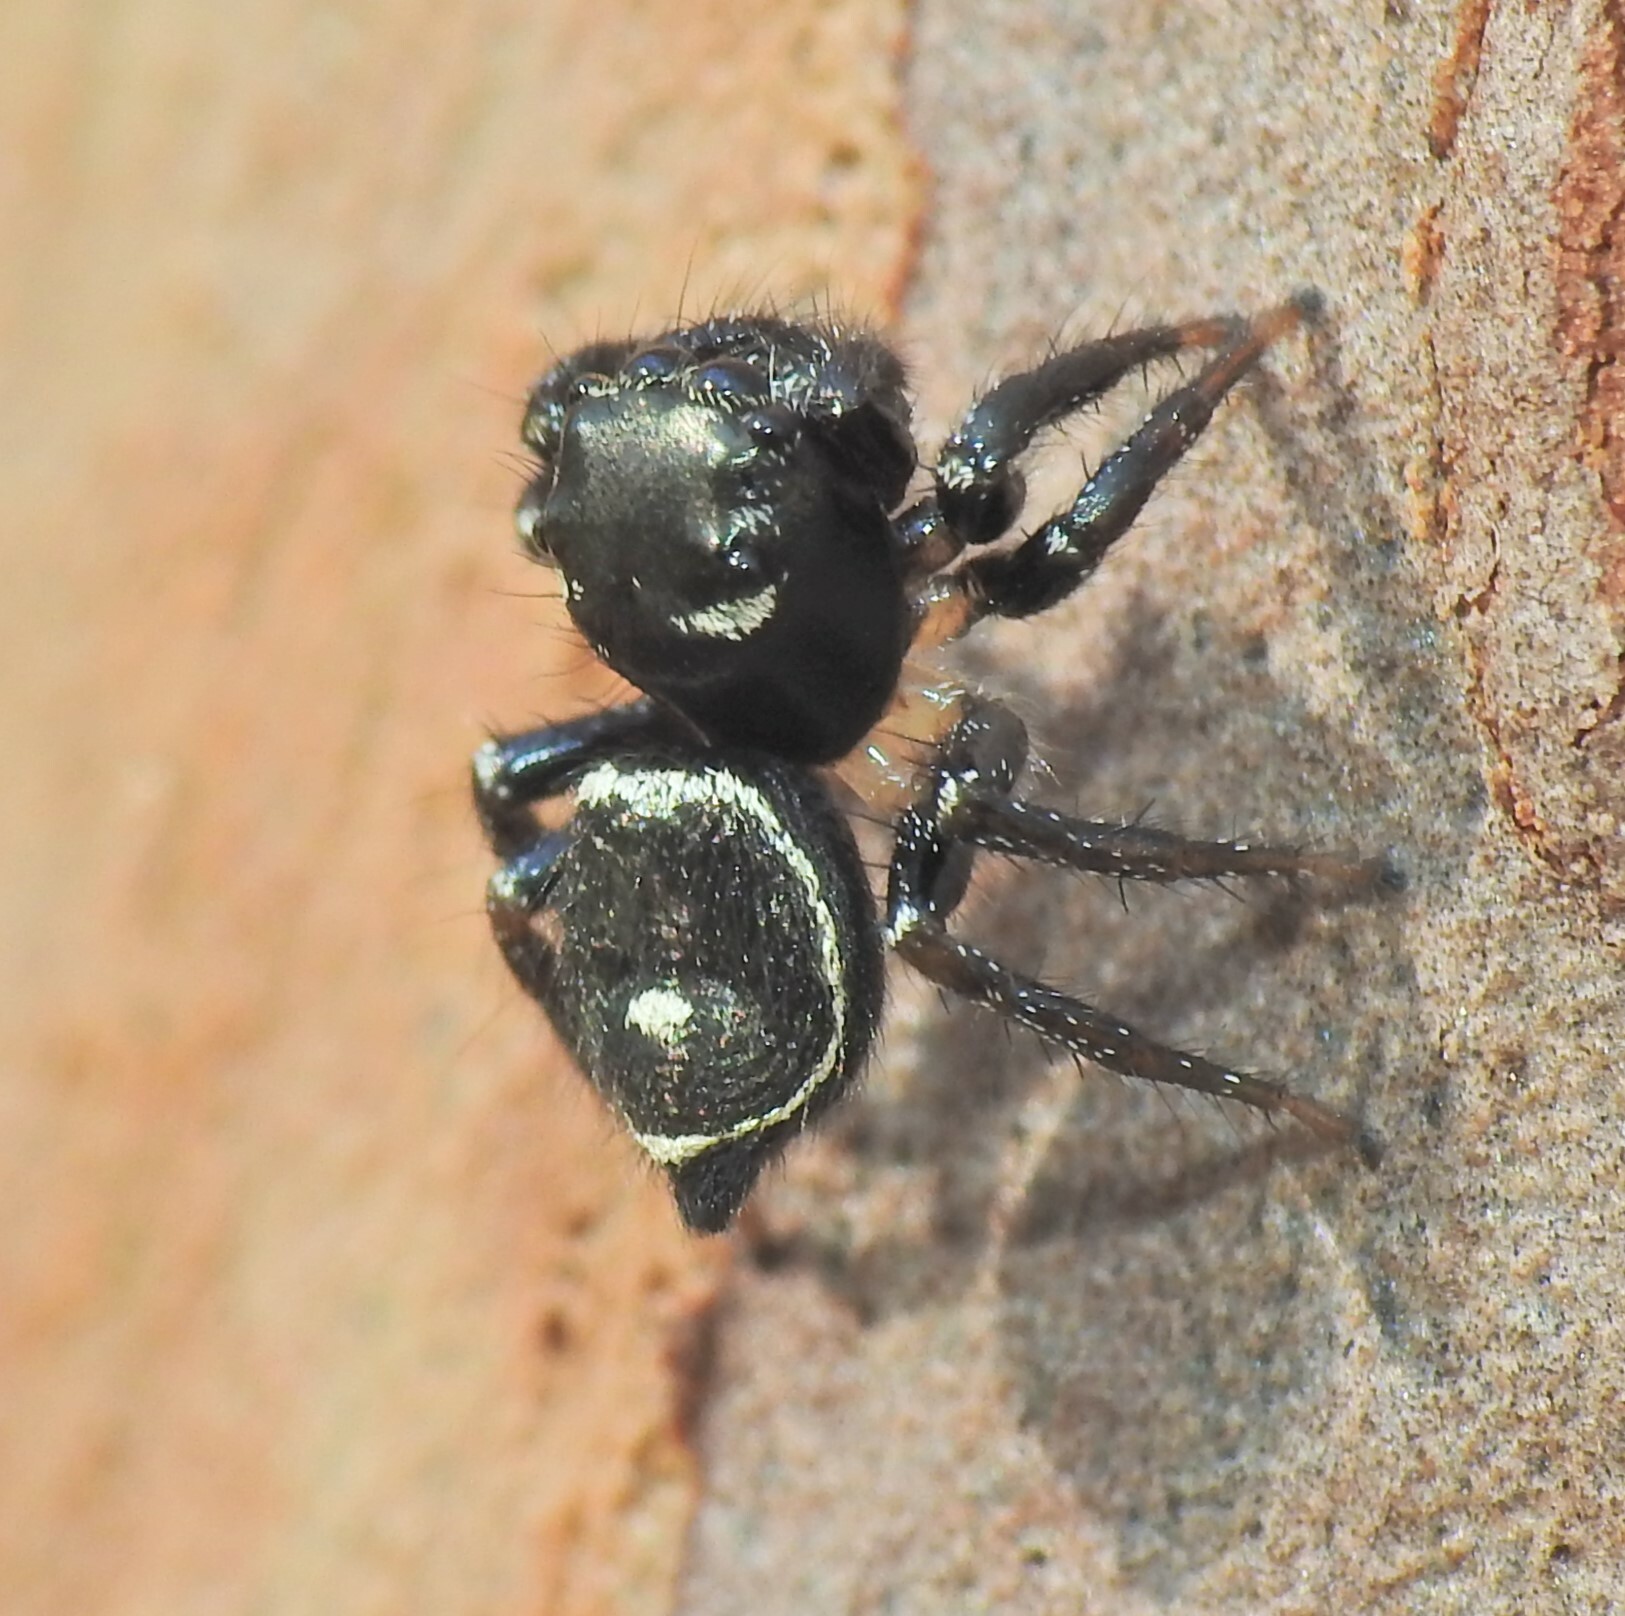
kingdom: Animalia
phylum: Arthropoda
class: Arachnida
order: Araneae
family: Salticidae
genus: Zenodorus
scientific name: Zenodorus orbiculatus
